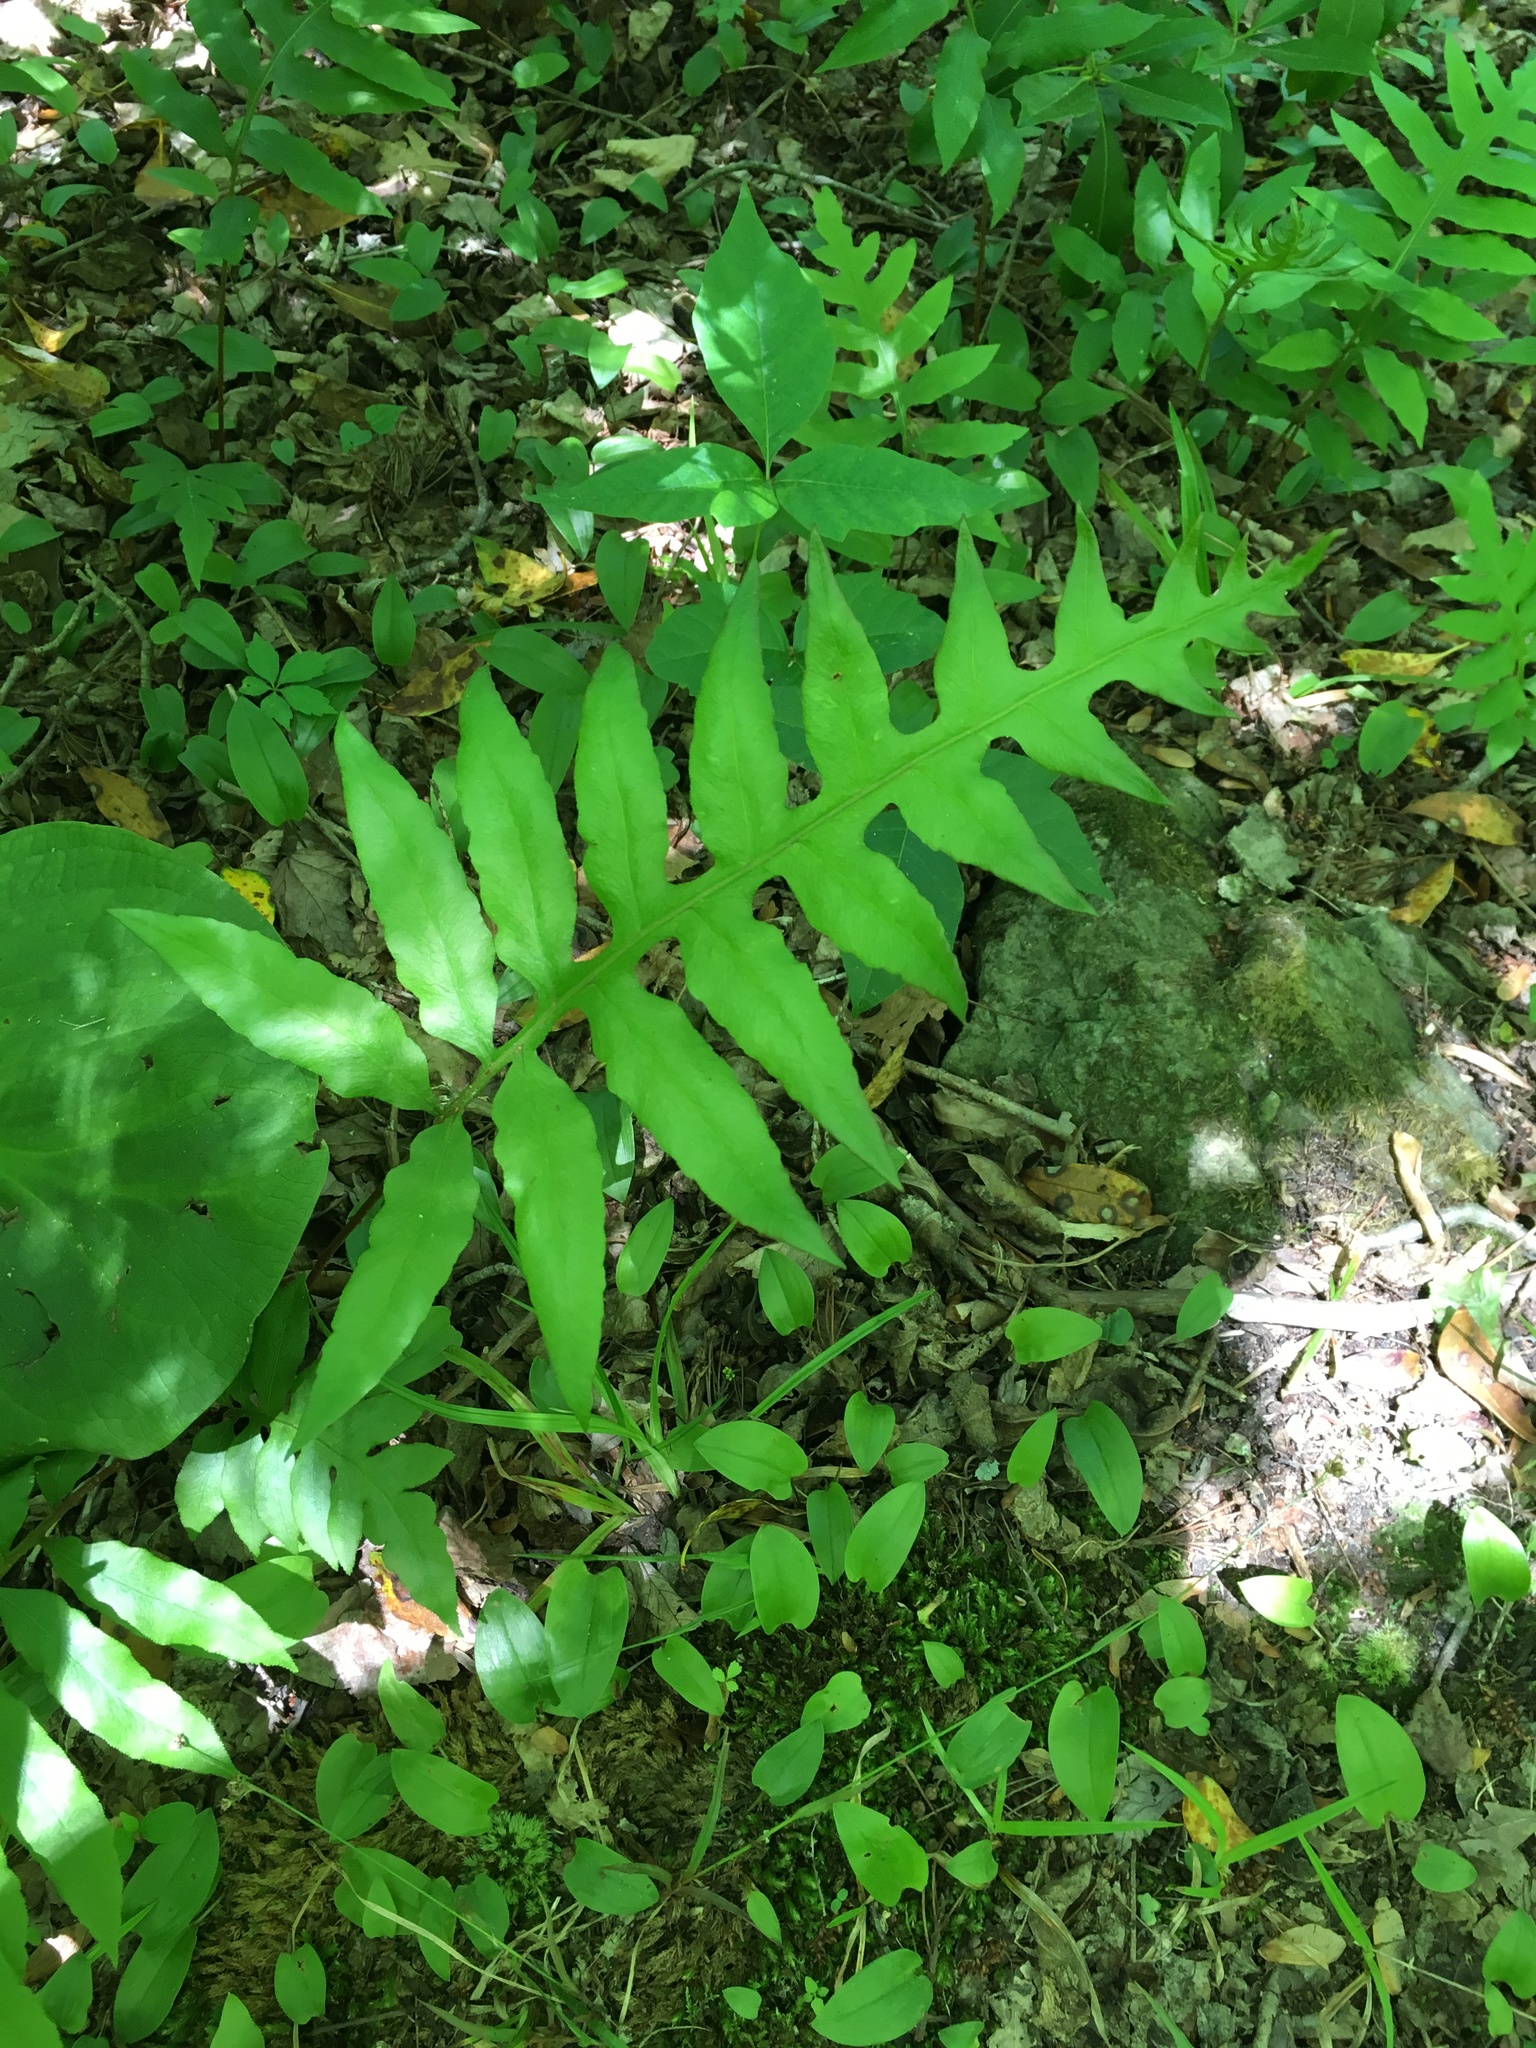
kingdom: Plantae
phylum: Tracheophyta
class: Polypodiopsida
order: Polypodiales
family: Blechnaceae
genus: Lorinseria
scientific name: Lorinseria areolata
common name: Dwarf chain fern
